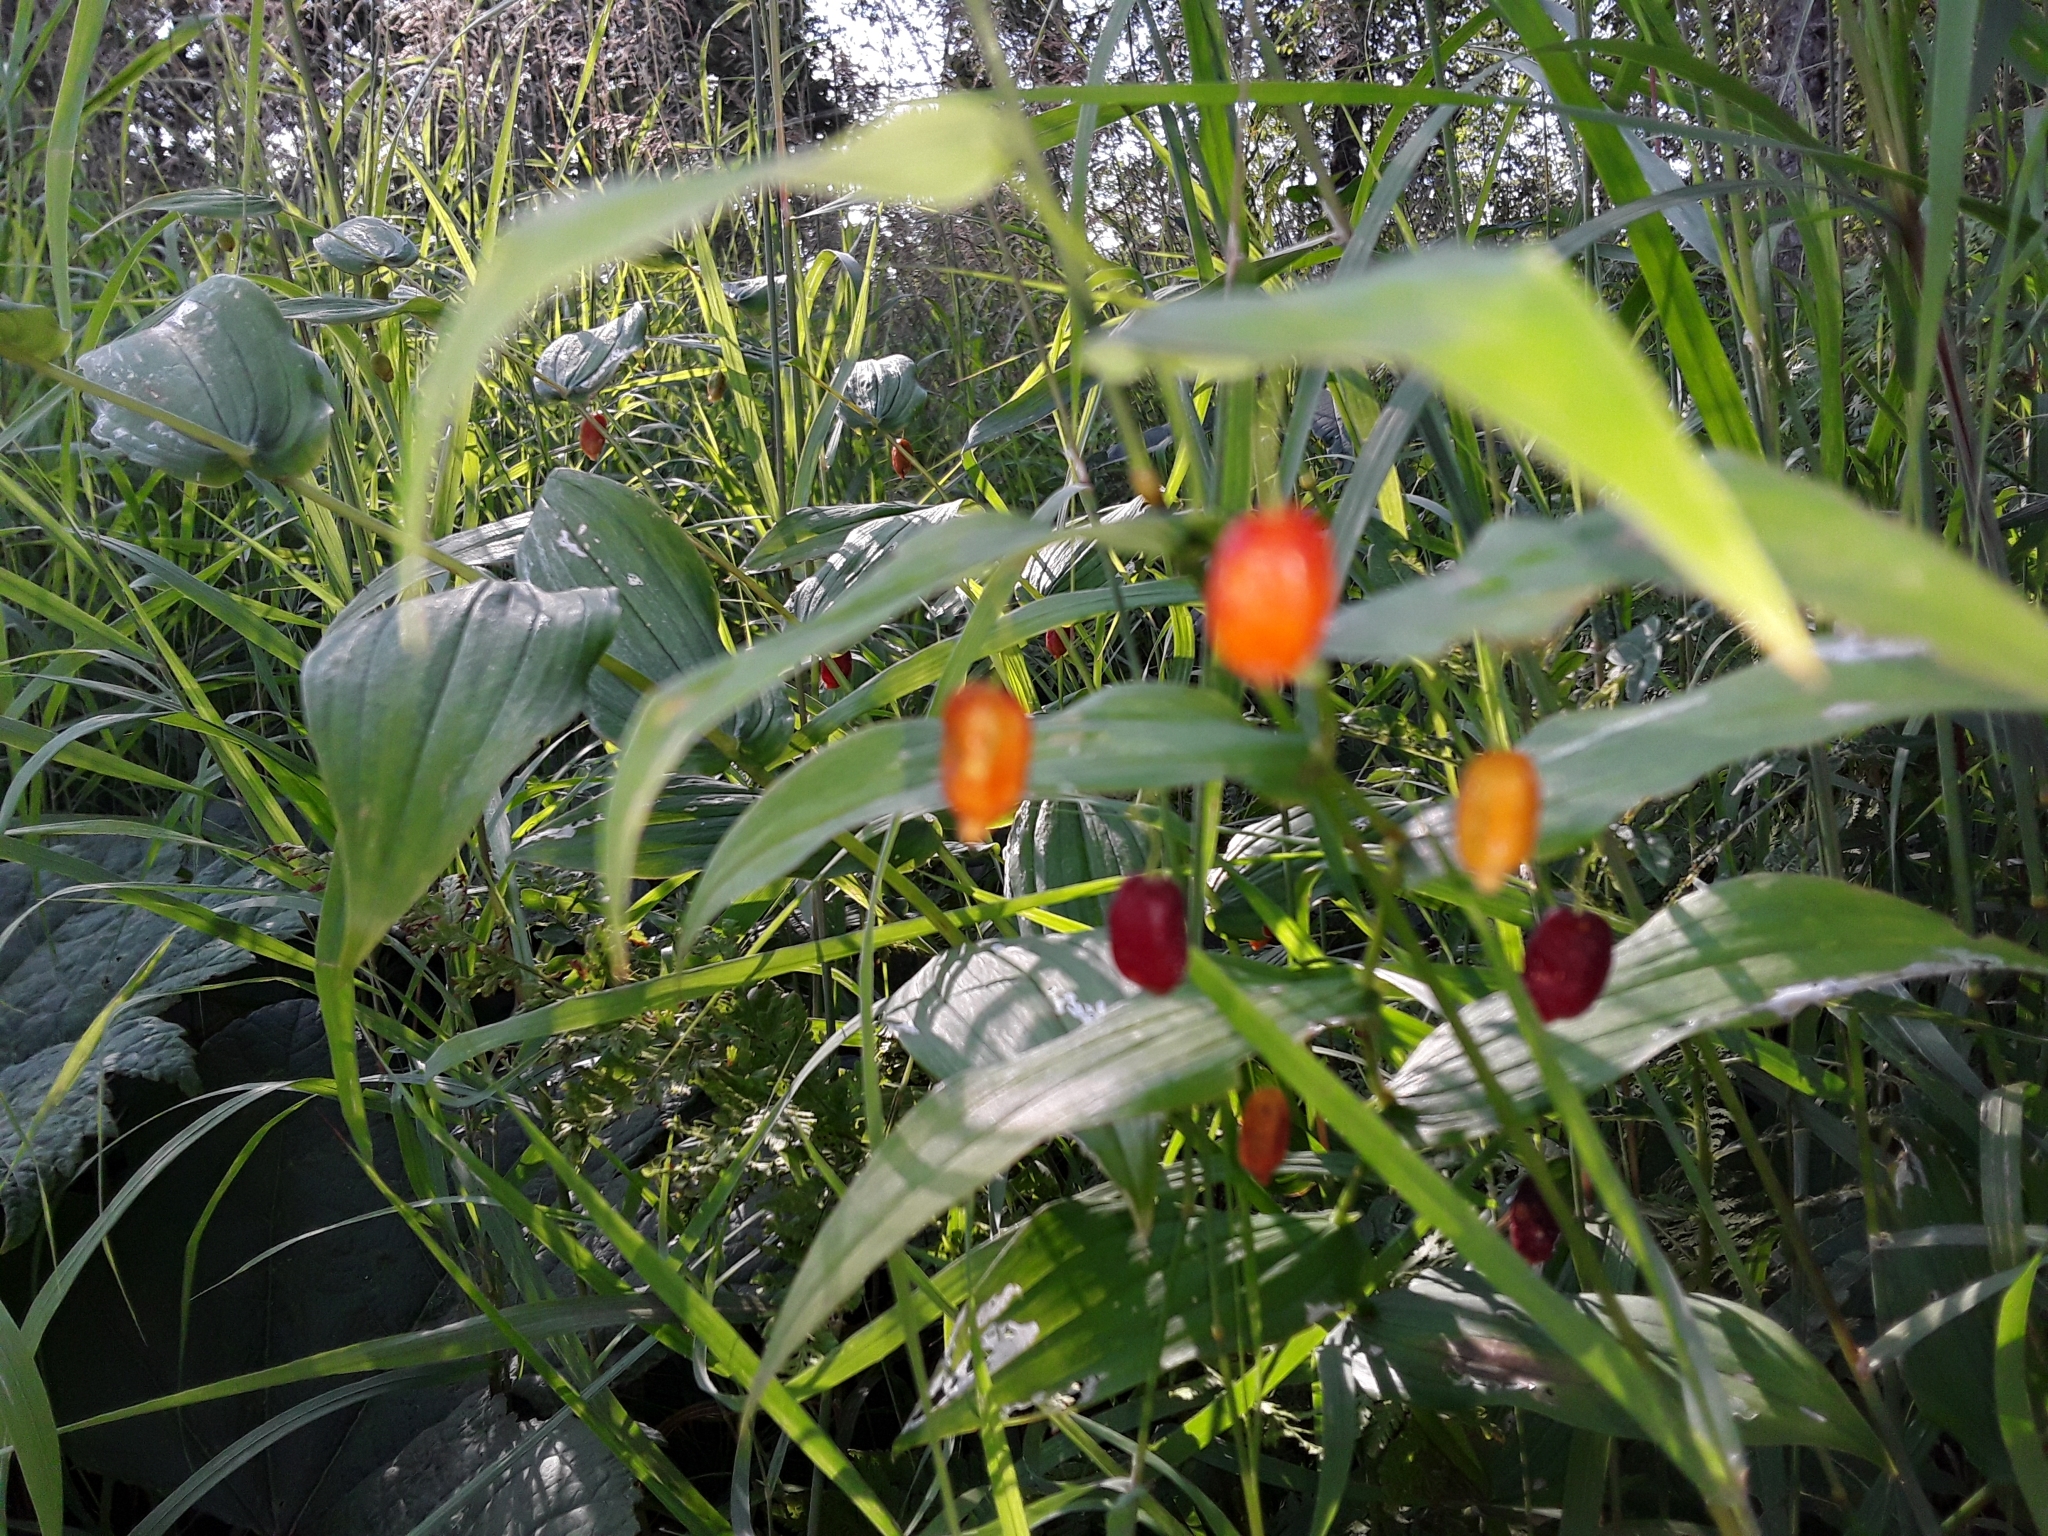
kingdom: Plantae
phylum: Tracheophyta
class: Liliopsida
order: Liliales
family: Liliaceae
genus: Streptopus
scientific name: Streptopus amplexifolius
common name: Clasp twisted stalk
